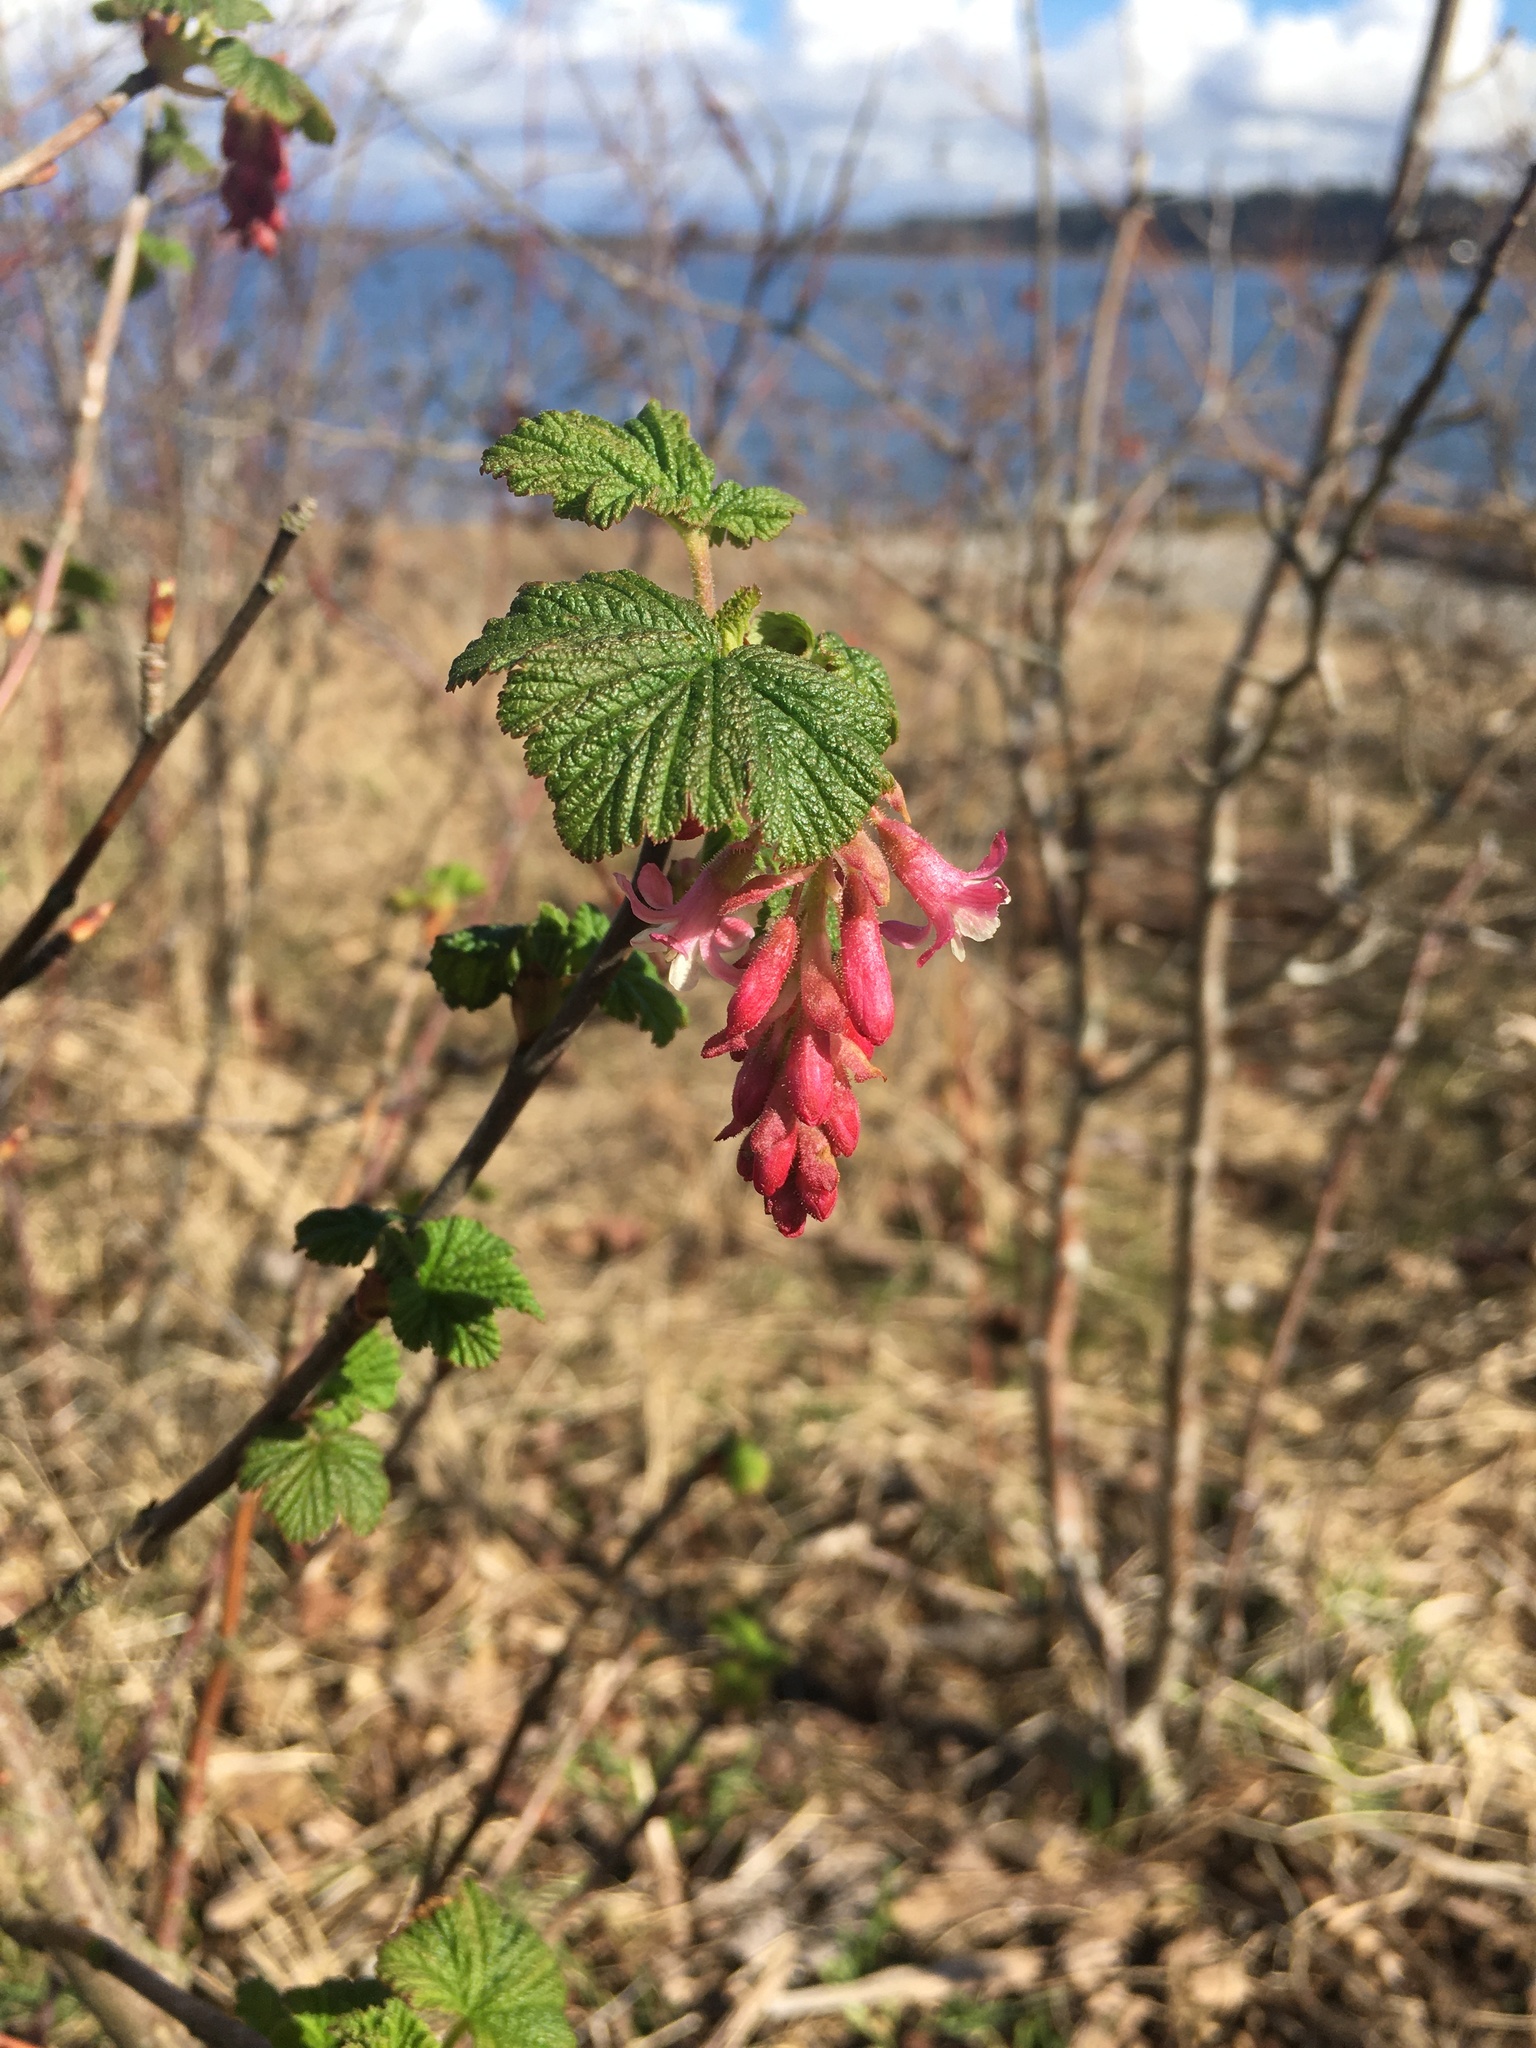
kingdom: Plantae
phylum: Tracheophyta
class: Magnoliopsida
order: Saxifragales
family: Grossulariaceae
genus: Ribes
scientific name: Ribes sanguineum
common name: Flowering currant
